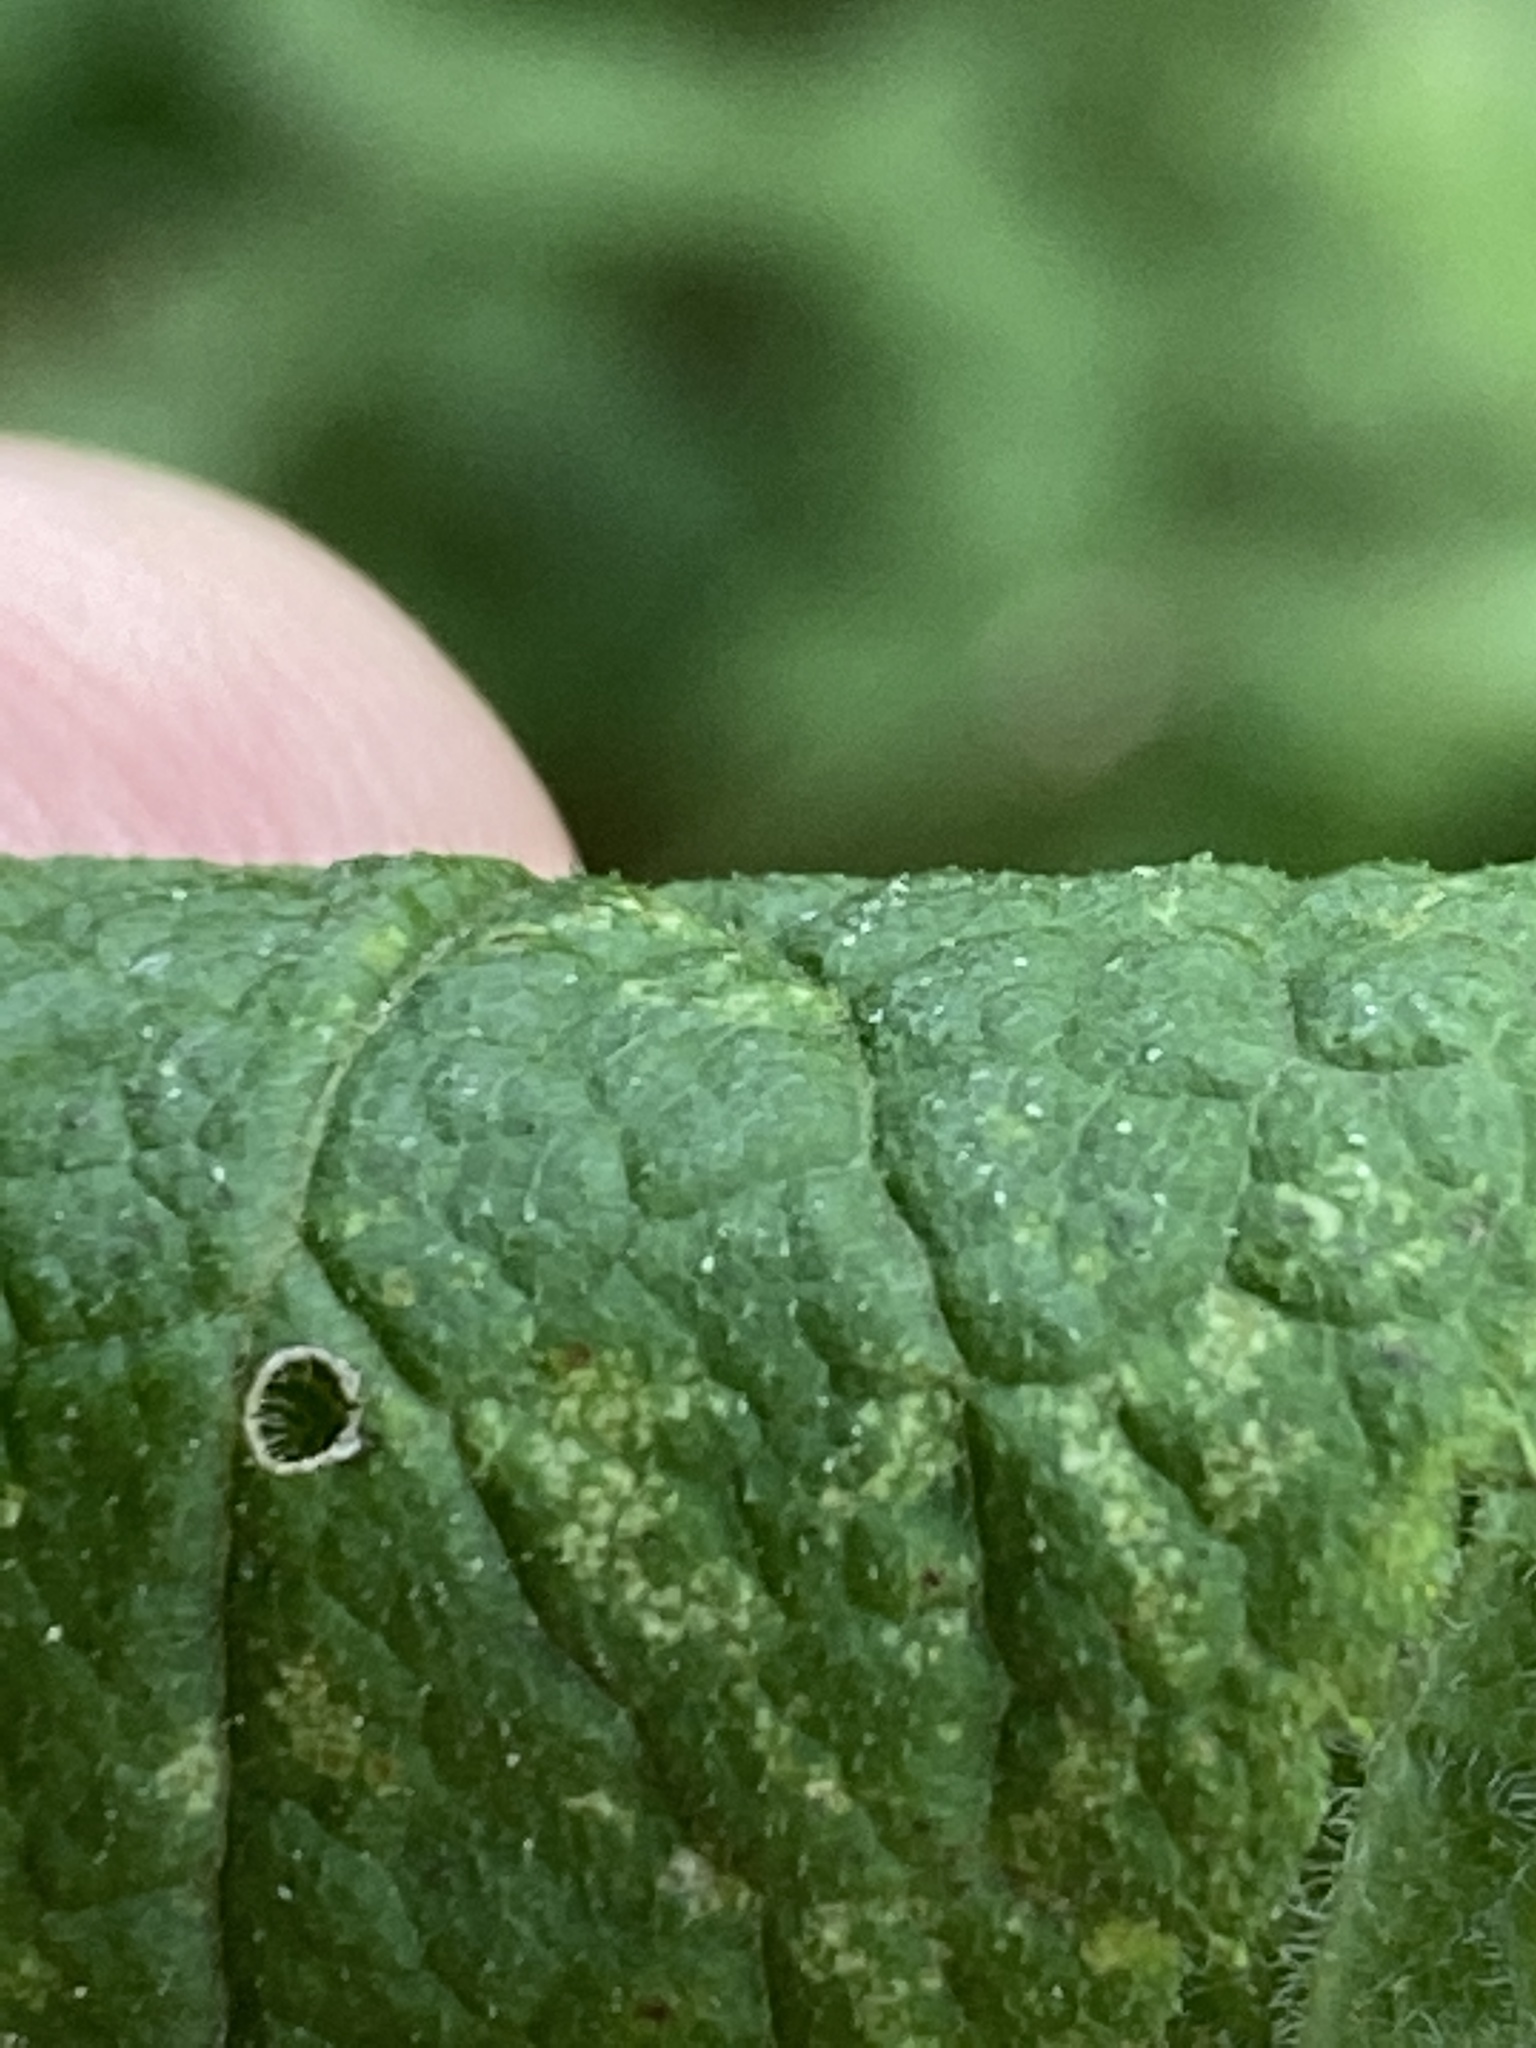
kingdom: Plantae
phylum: Tracheophyta
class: Magnoliopsida
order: Asterales
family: Asteraceae
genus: Solidago
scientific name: Solidago rugosa
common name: Rough-stemmed goldenrod
